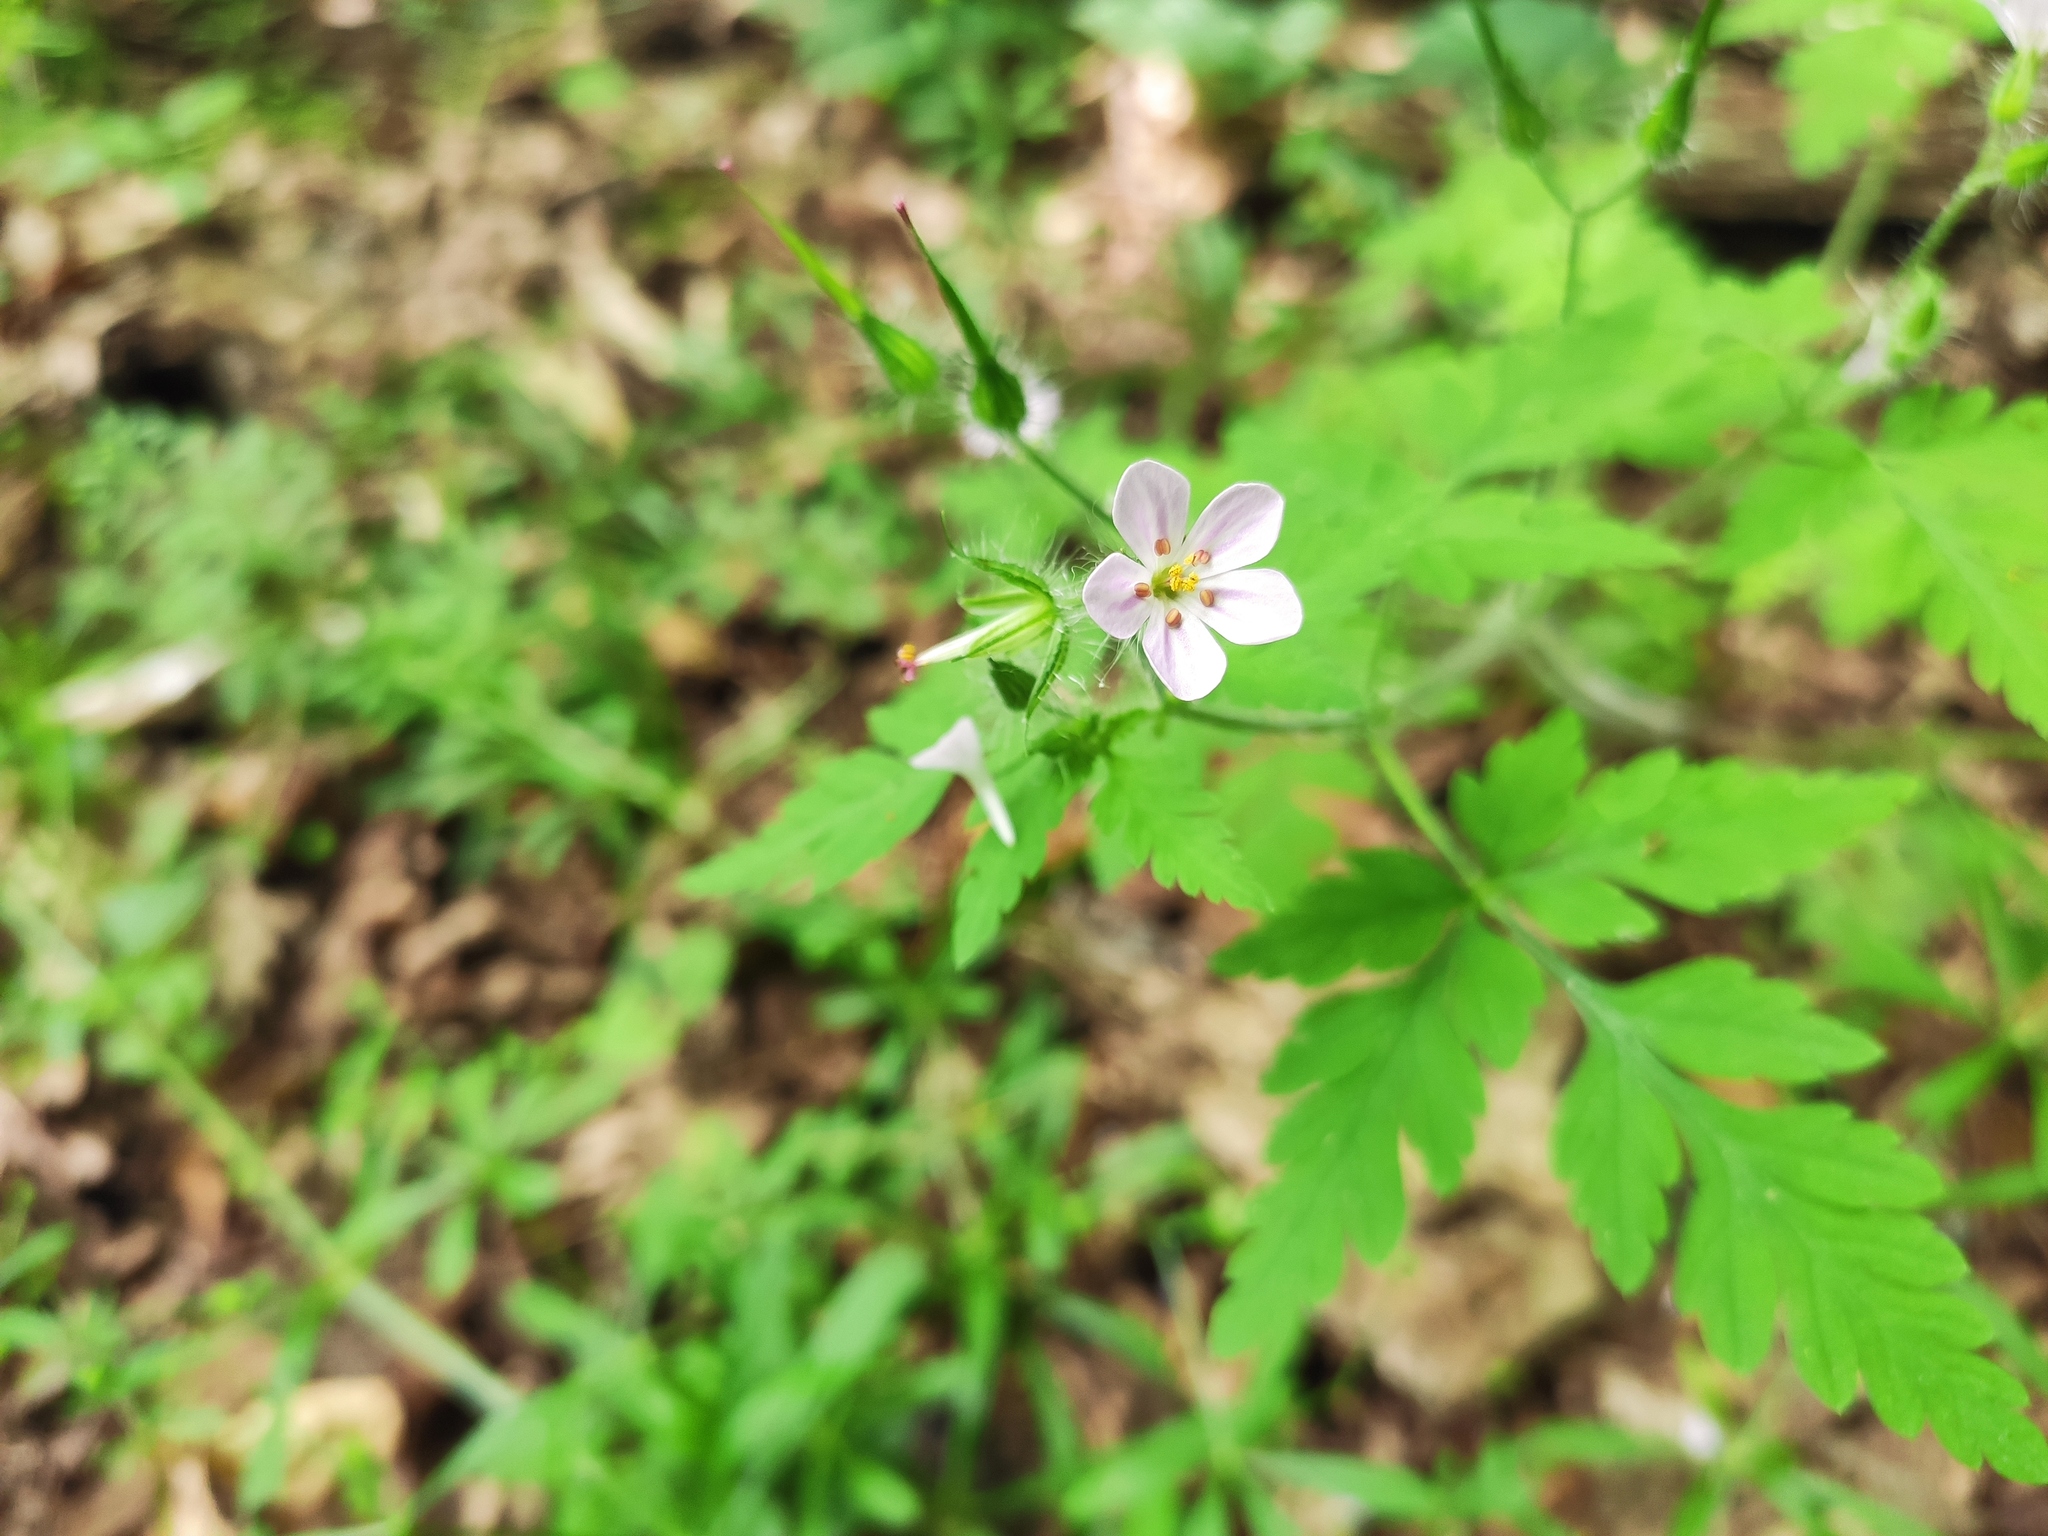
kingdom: Plantae
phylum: Tracheophyta
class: Magnoliopsida
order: Geraniales
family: Geraniaceae
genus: Geranium
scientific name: Geranium robertianum
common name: Herb-robert
